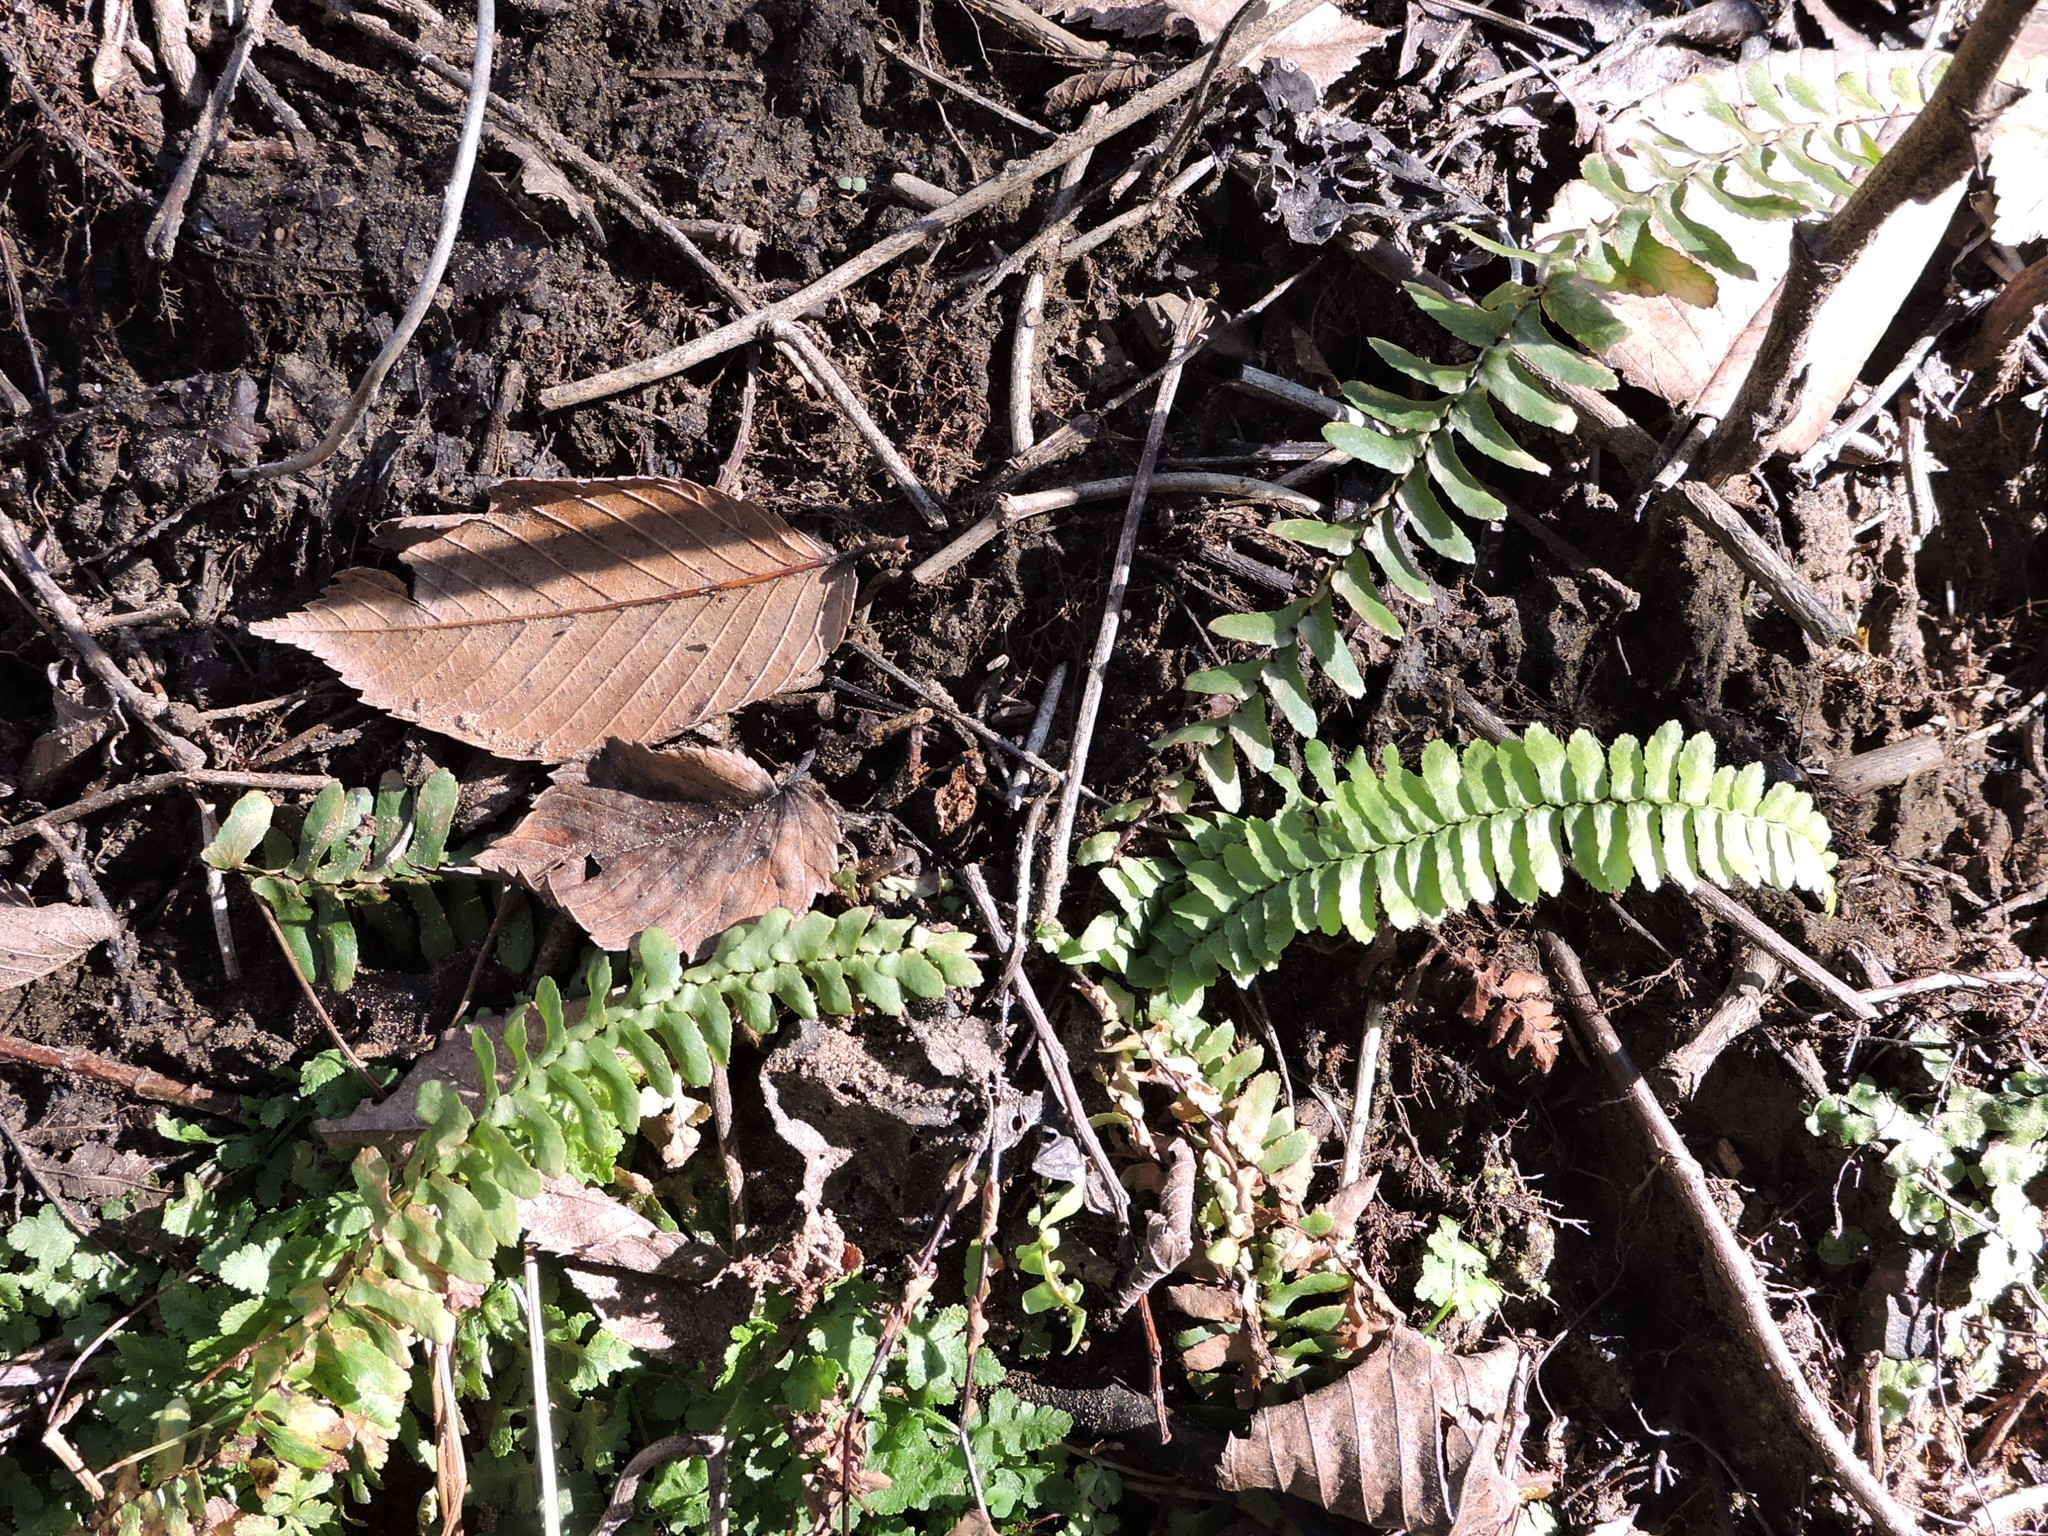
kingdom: Plantae
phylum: Tracheophyta
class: Polypodiopsida
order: Polypodiales
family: Aspleniaceae
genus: Asplenium
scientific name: Asplenium platyneuron
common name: Ebony spleenwort
